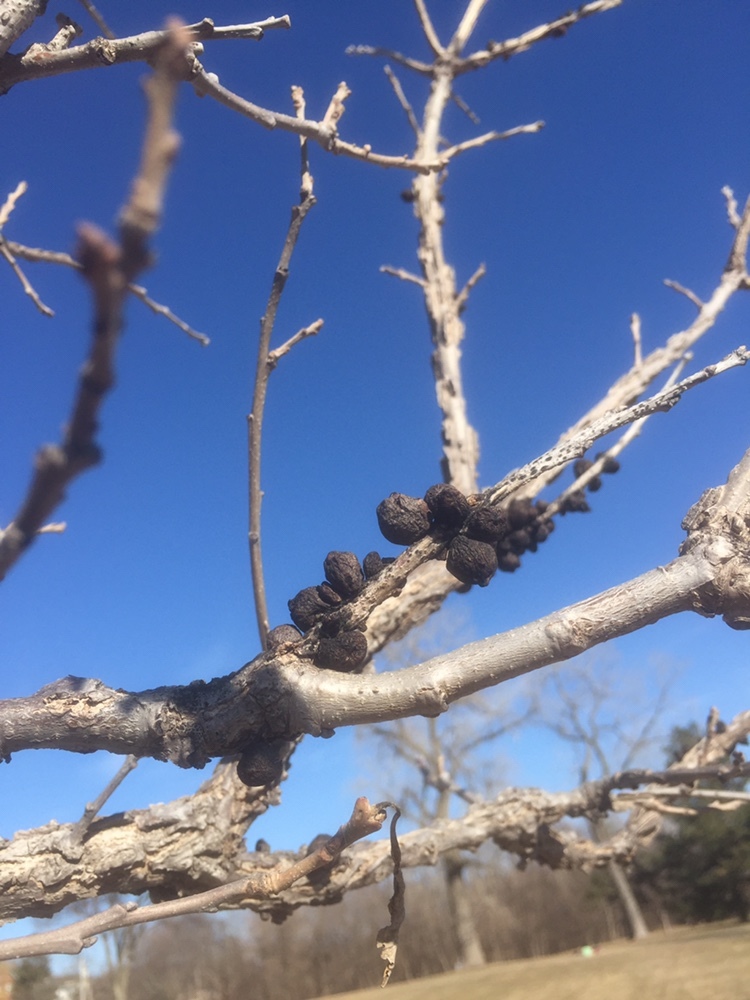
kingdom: Animalia
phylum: Arthropoda
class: Insecta
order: Hymenoptera
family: Cynipidae
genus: Disholcaspis
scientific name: Disholcaspis
